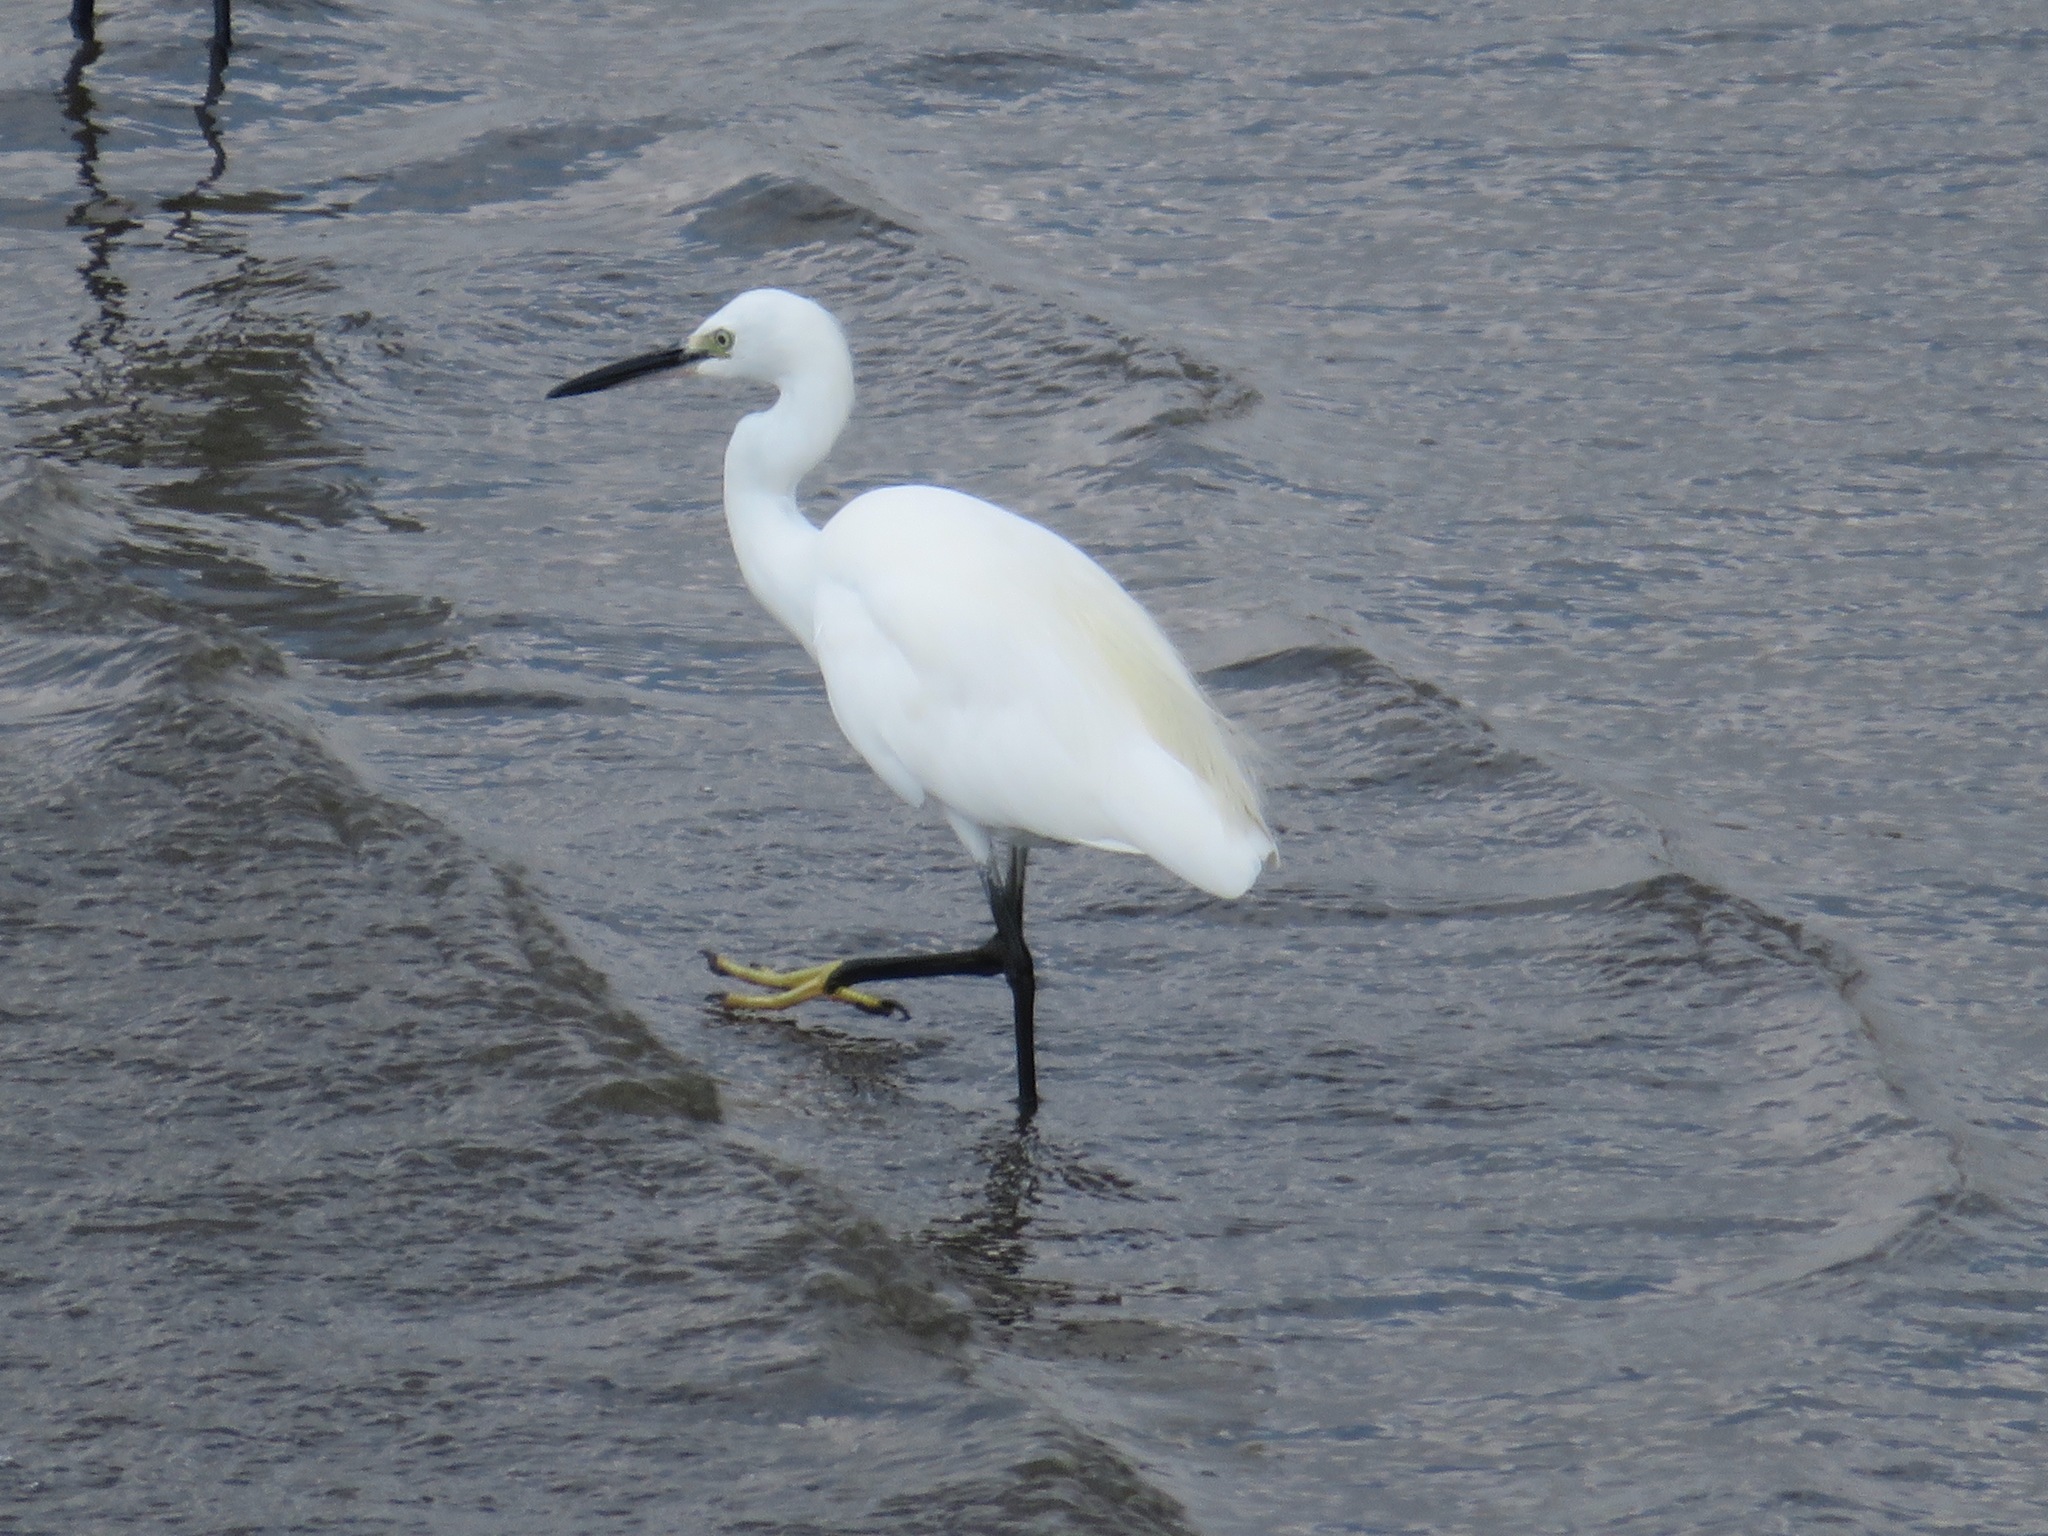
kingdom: Animalia
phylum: Chordata
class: Aves
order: Pelecaniformes
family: Ardeidae
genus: Egretta
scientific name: Egretta garzetta
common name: Little egret
